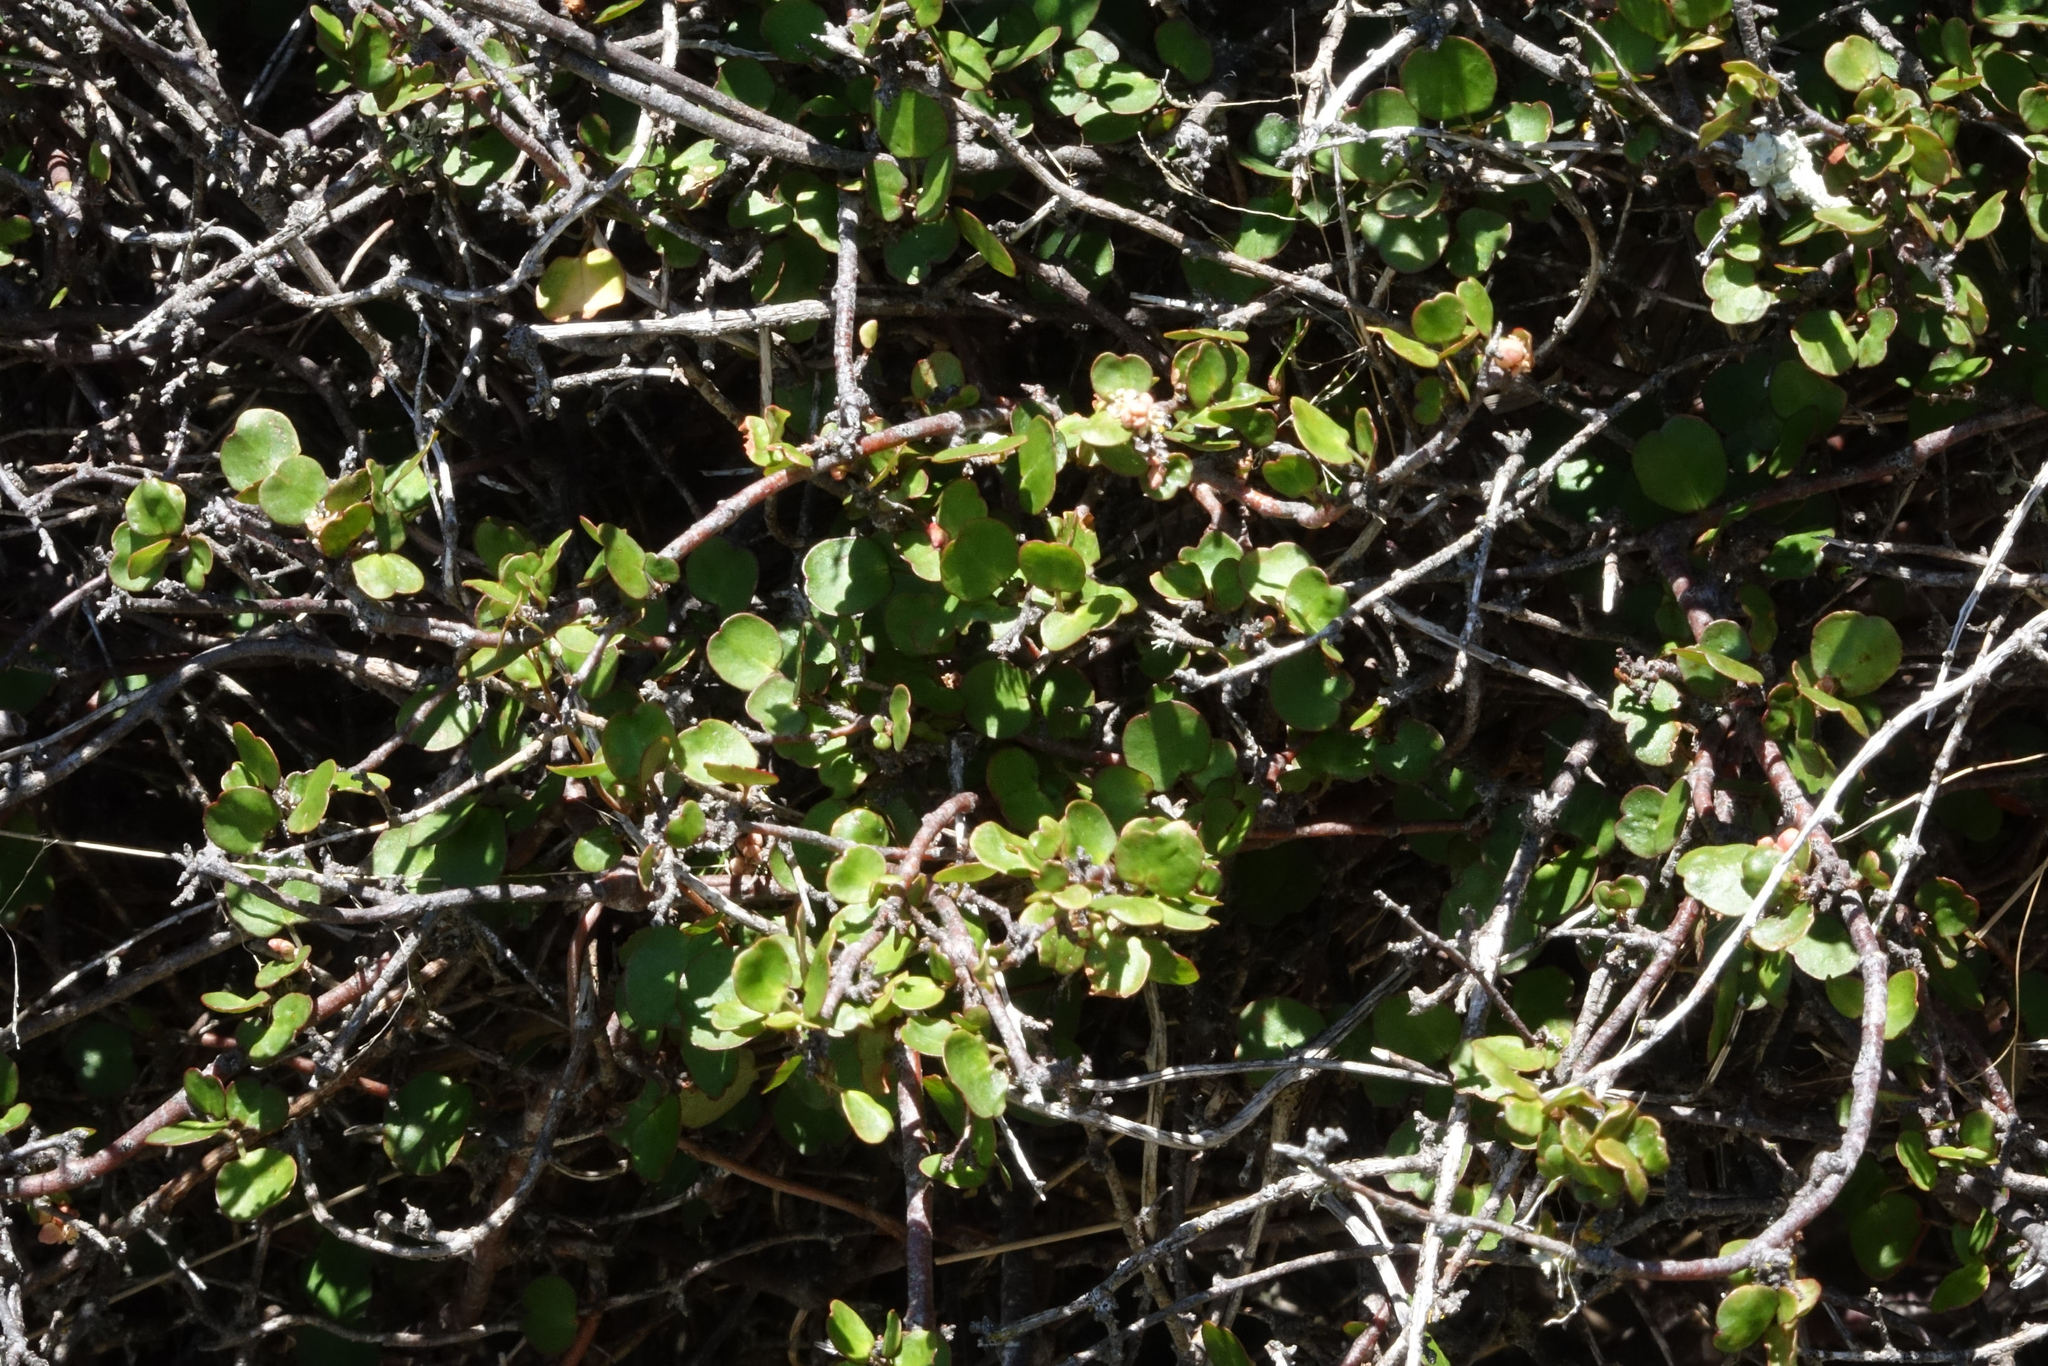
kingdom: Plantae
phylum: Tracheophyta
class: Magnoliopsida
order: Caryophyllales
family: Polygonaceae
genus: Muehlenbeckia
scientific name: Muehlenbeckia complexa
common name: Wireplant
